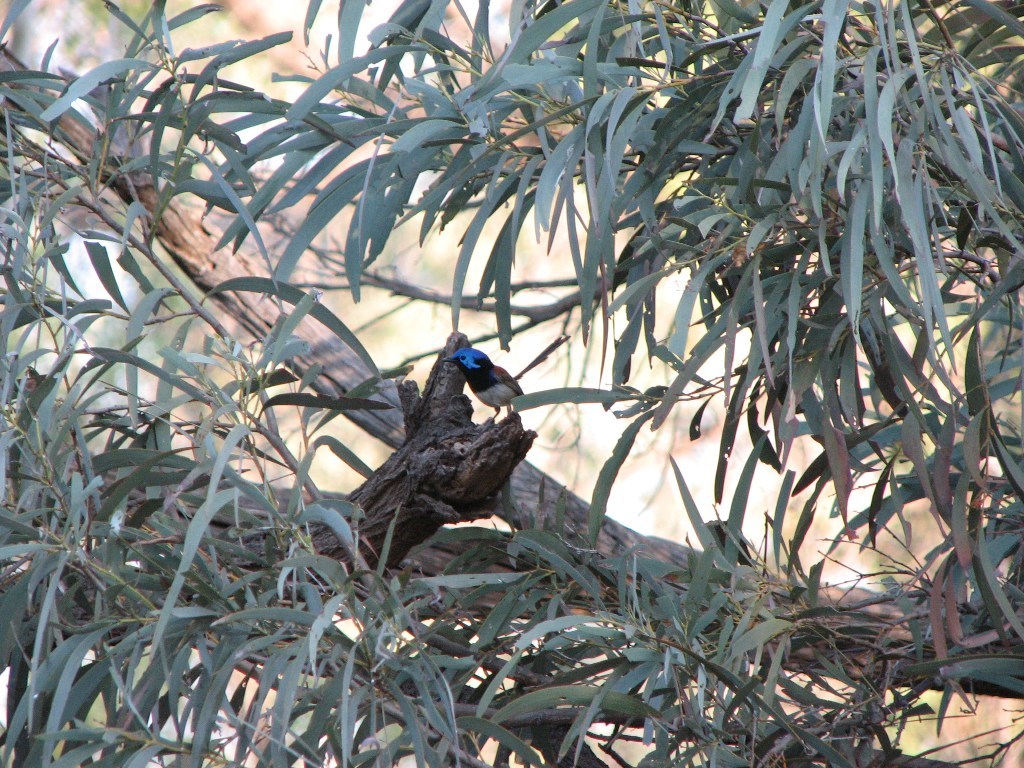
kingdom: Animalia
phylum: Chordata
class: Aves
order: Passeriformes
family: Maluridae
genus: Malurus
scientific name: Malurus assimilis
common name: Purple-backed fairywren
